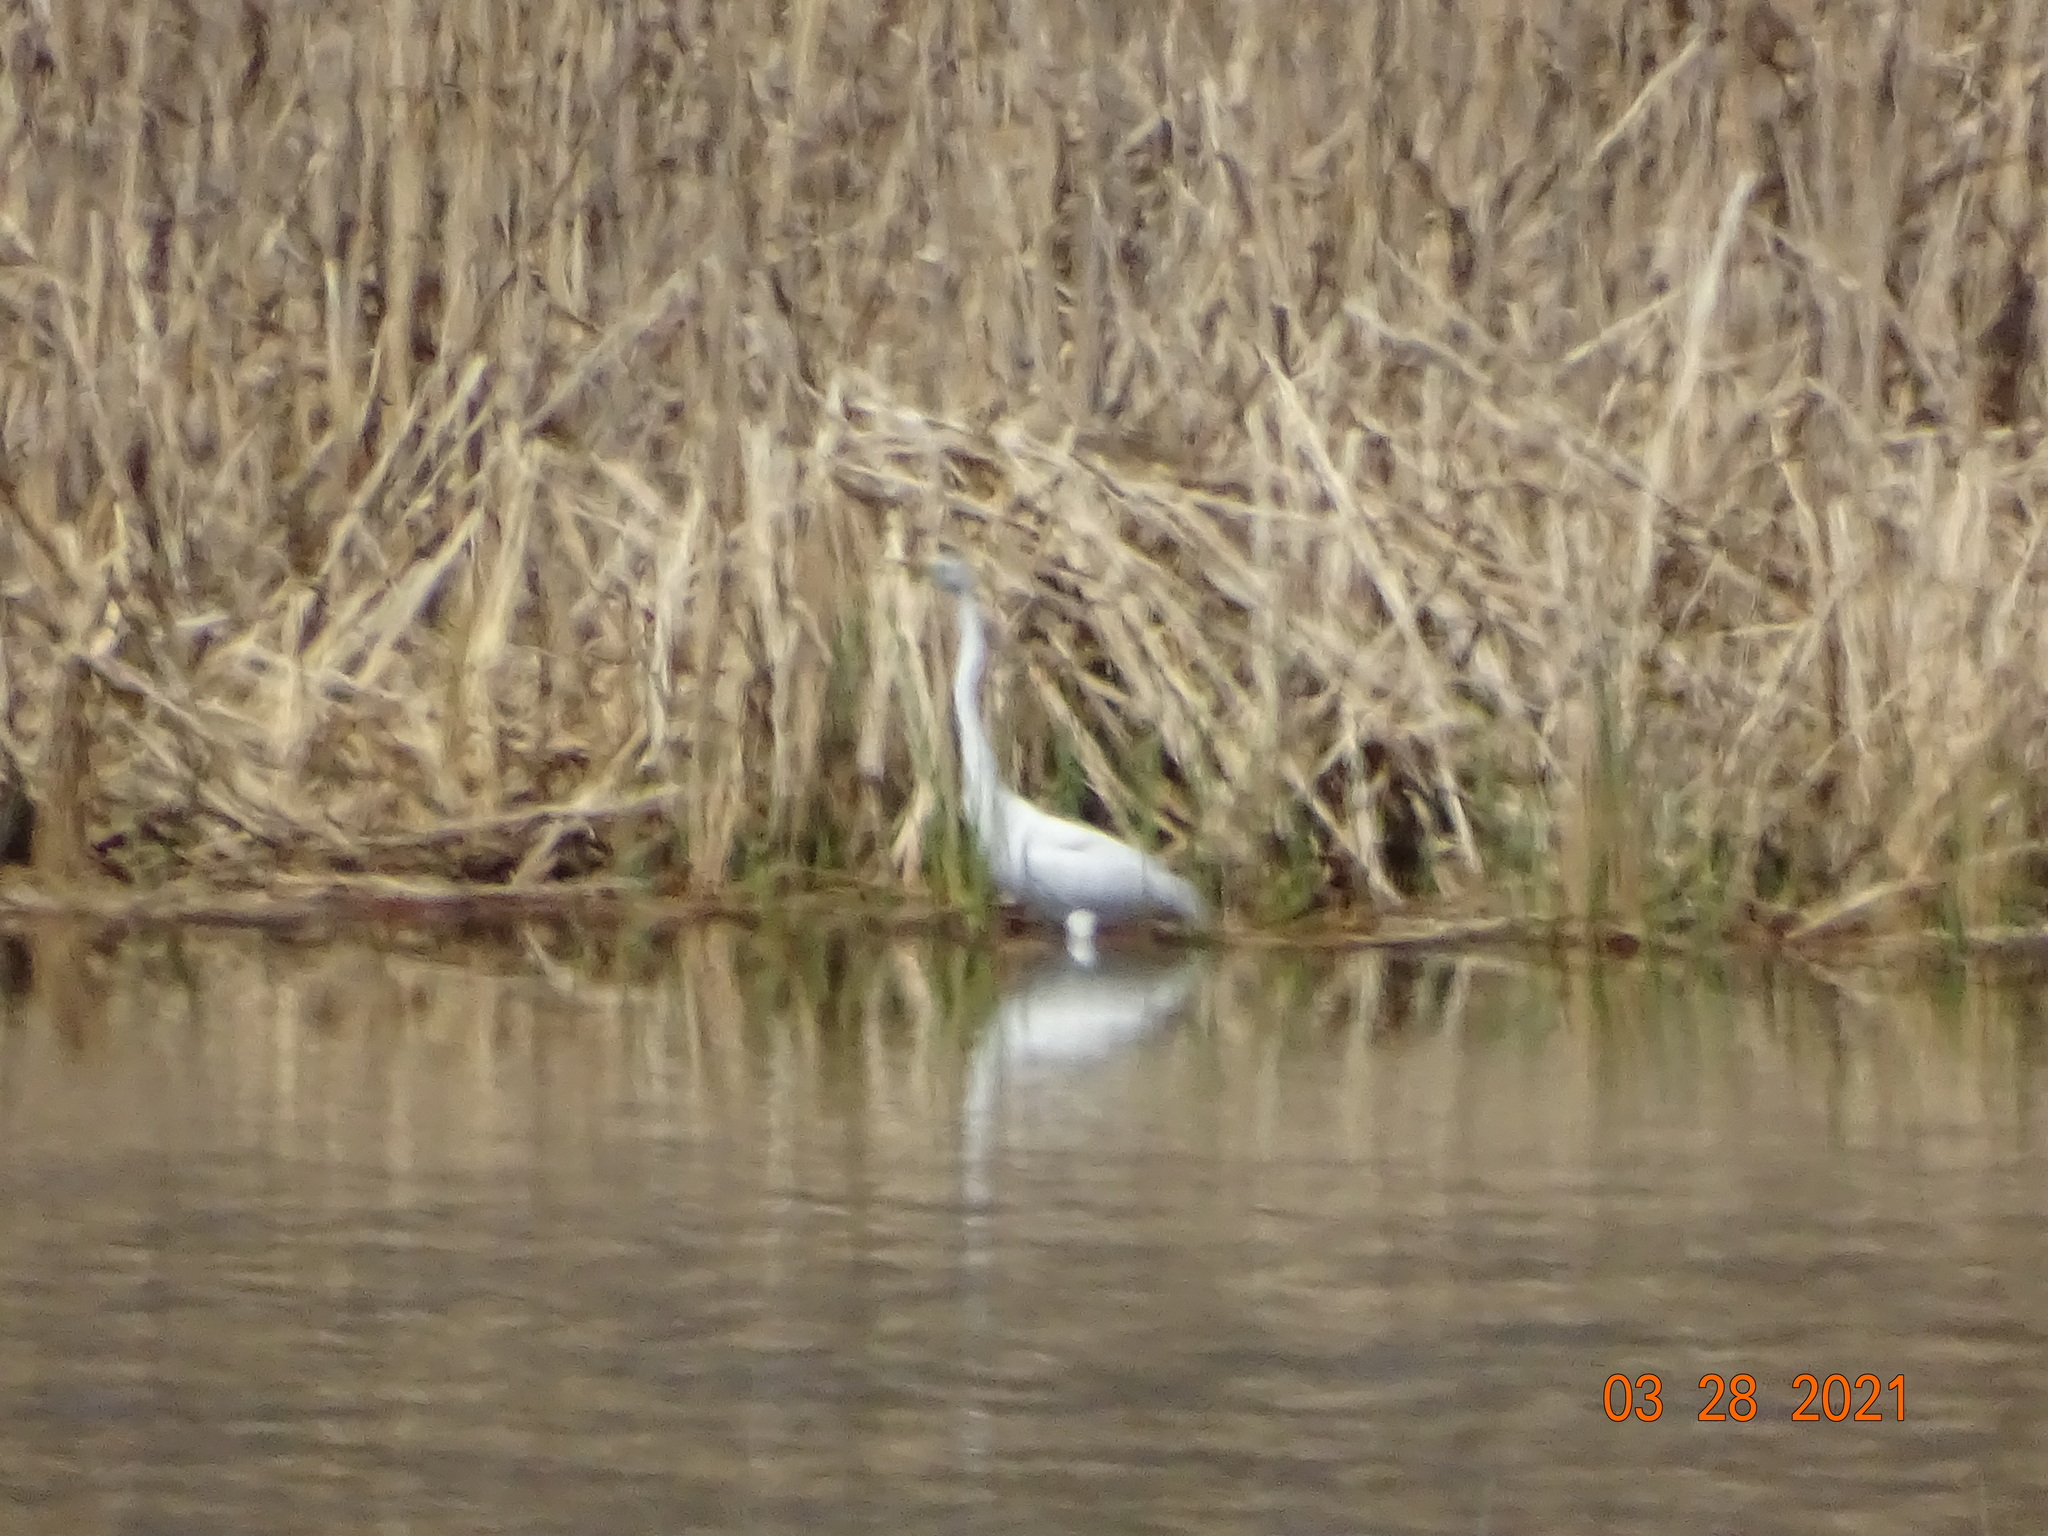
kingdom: Animalia
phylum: Chordata
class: Aves
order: Pelecaniformes
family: Ardeidae
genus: Ardea
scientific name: Ardea alba
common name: Great egret
